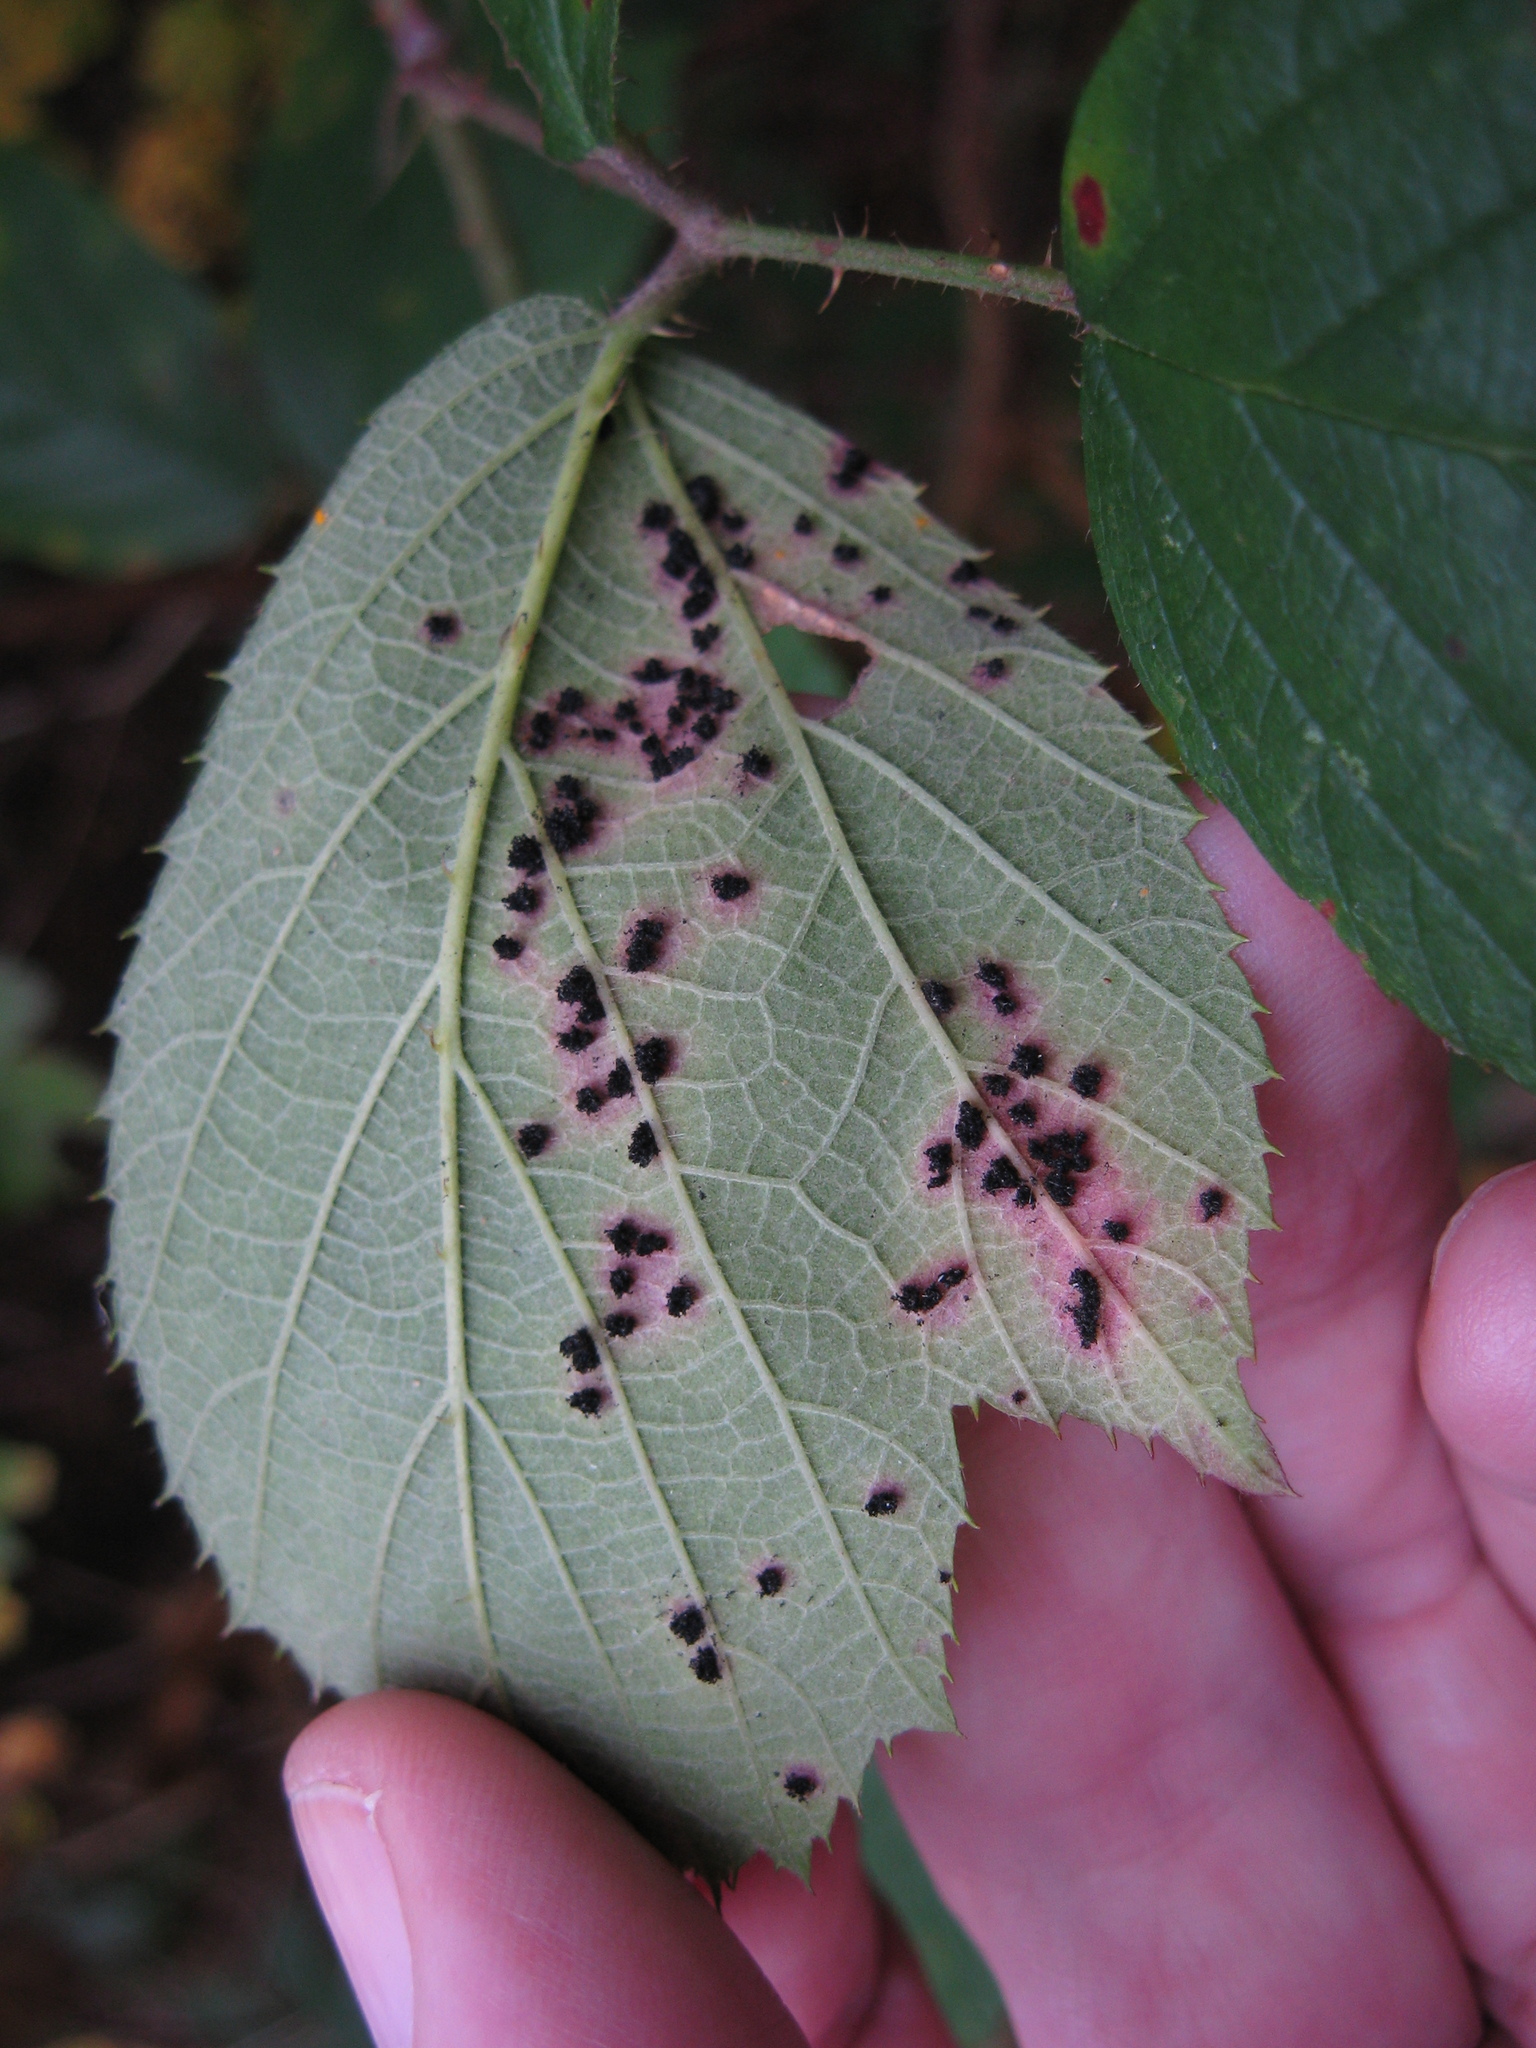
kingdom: Fungi
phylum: Basidiomycota
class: Pucciniomycetes
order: Pucciniales
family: Phragmidiaceae
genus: Phragmidium
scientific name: Phragmidium violaceum
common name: Violet bramble rust
